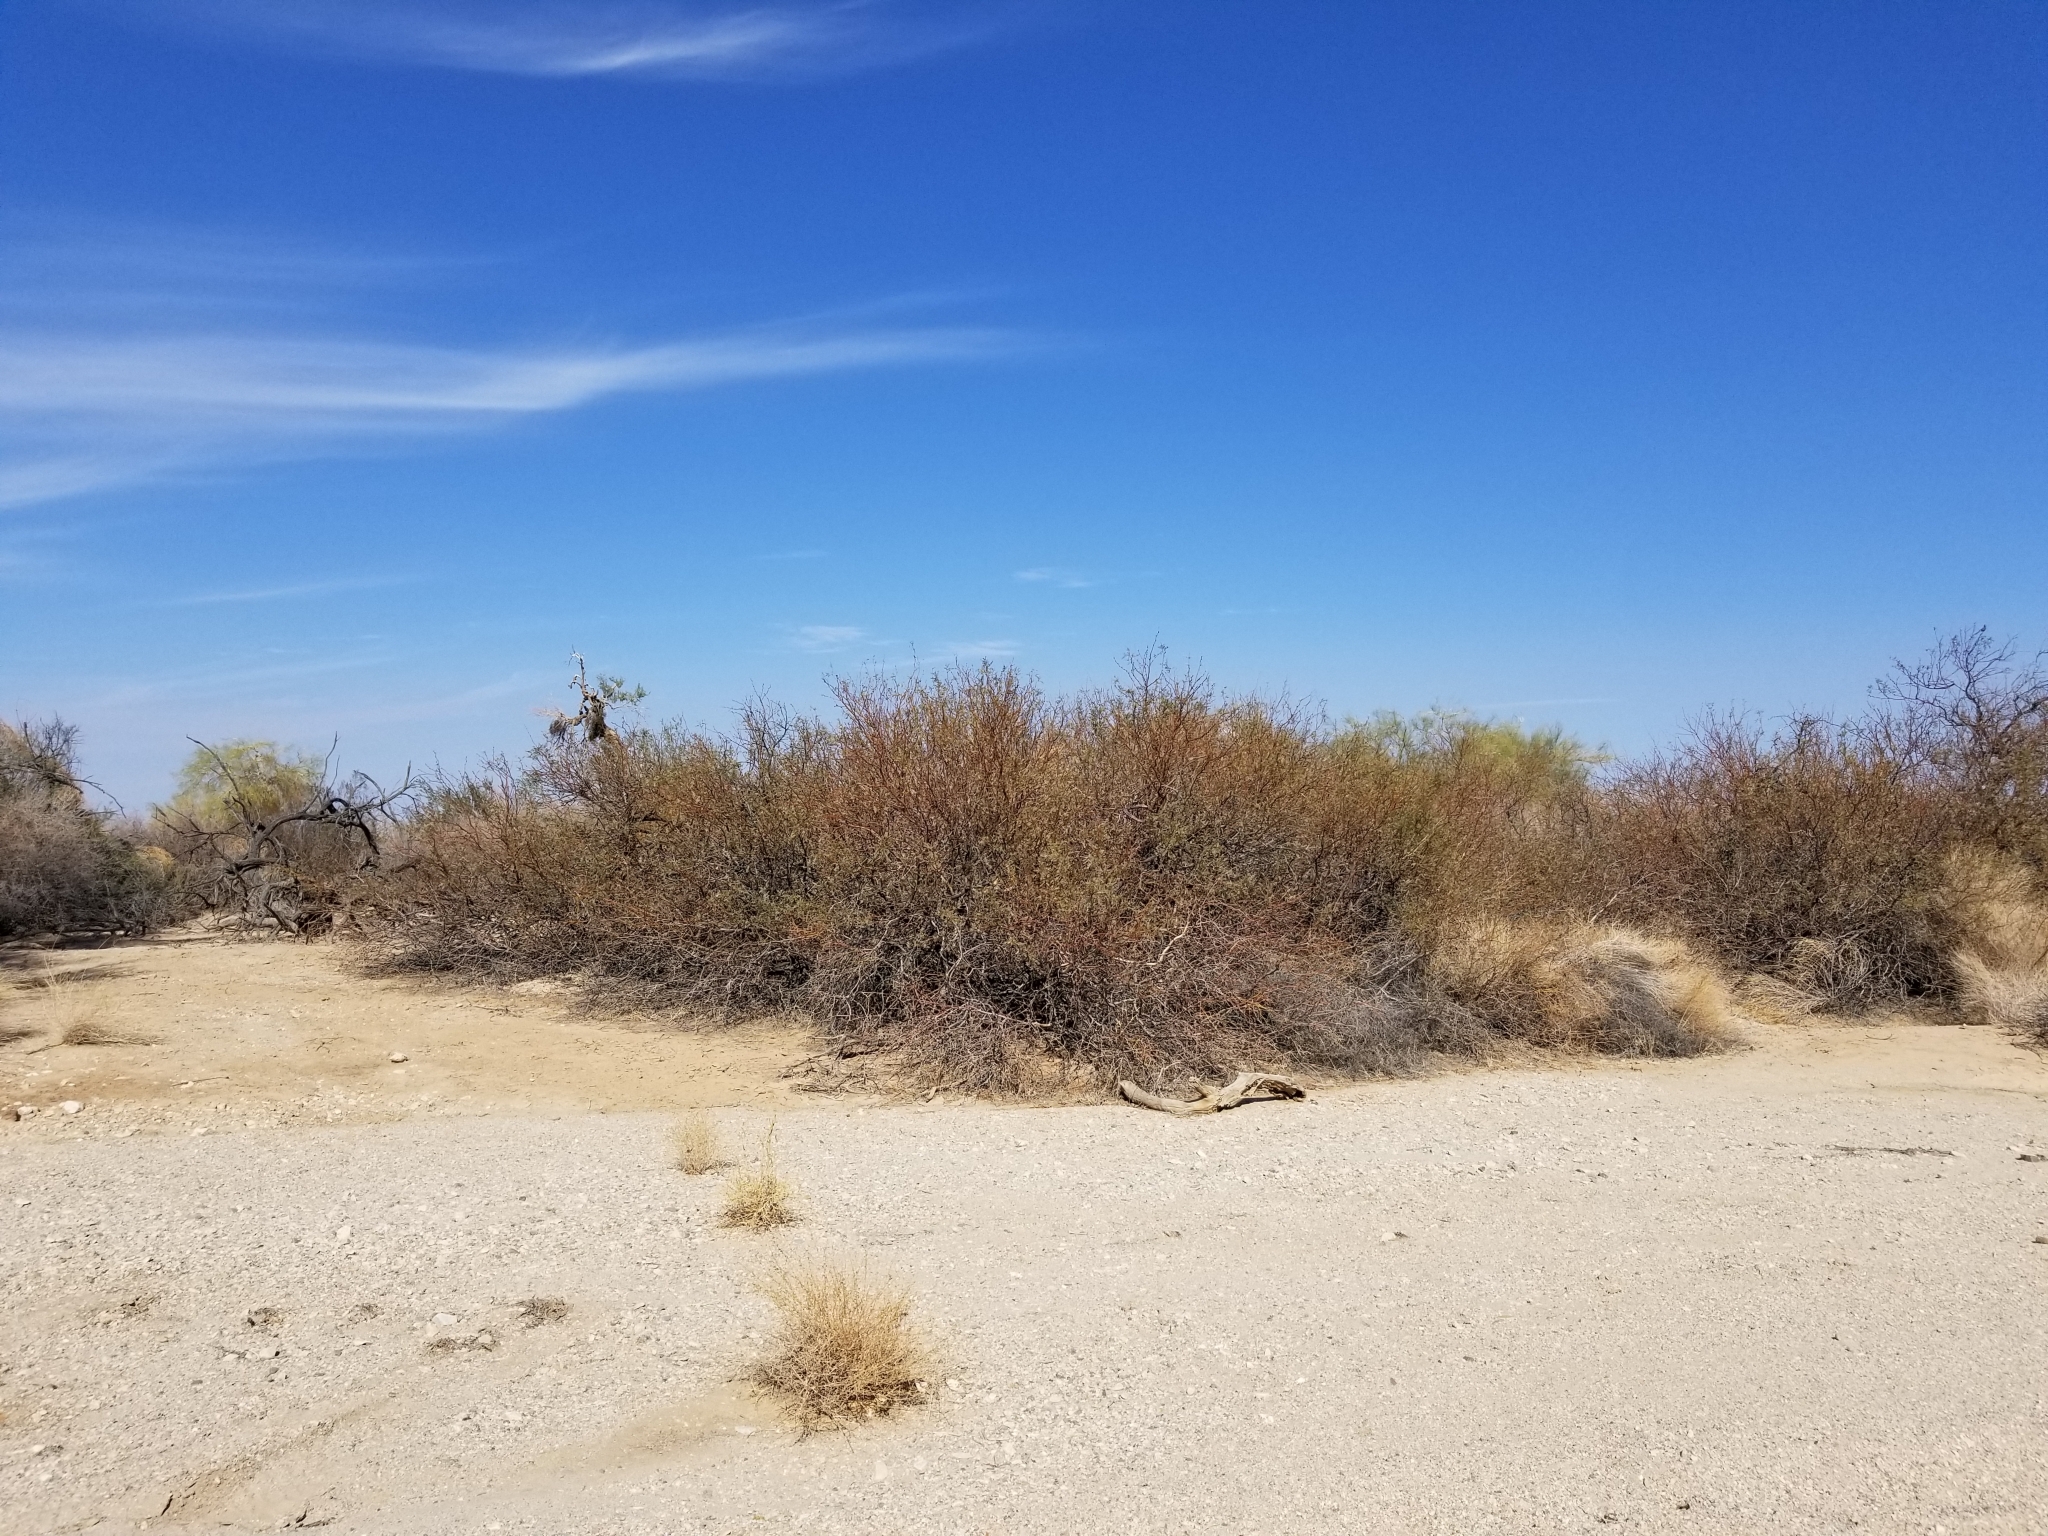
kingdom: Plantae
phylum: Tracheophyta
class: Magnoliopsida
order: Fabales
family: Fabaceae
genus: Prosopis
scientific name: Prosopis glandulosa
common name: Honey mesquite
